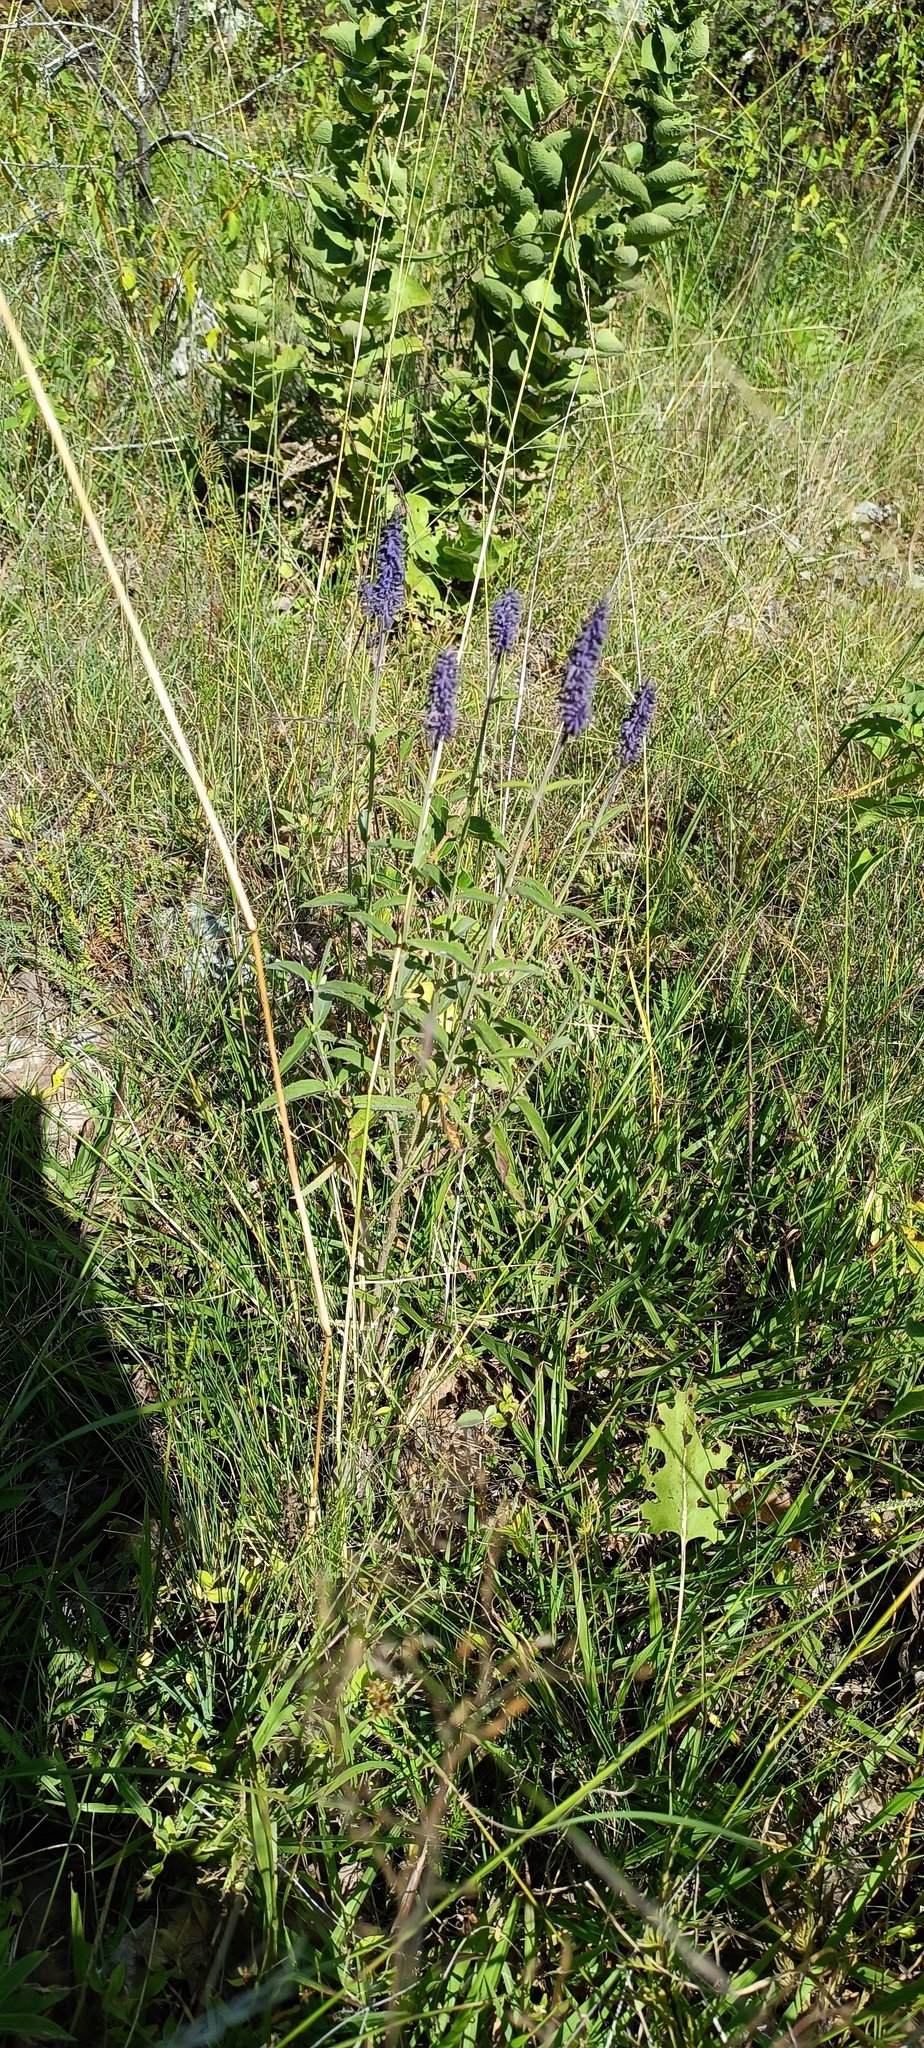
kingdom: Plantae
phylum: Tracheophyta
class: Magnoliopsida
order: Lamiales
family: Lamiaceae
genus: Salvia
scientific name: Salvia lavanduloides
